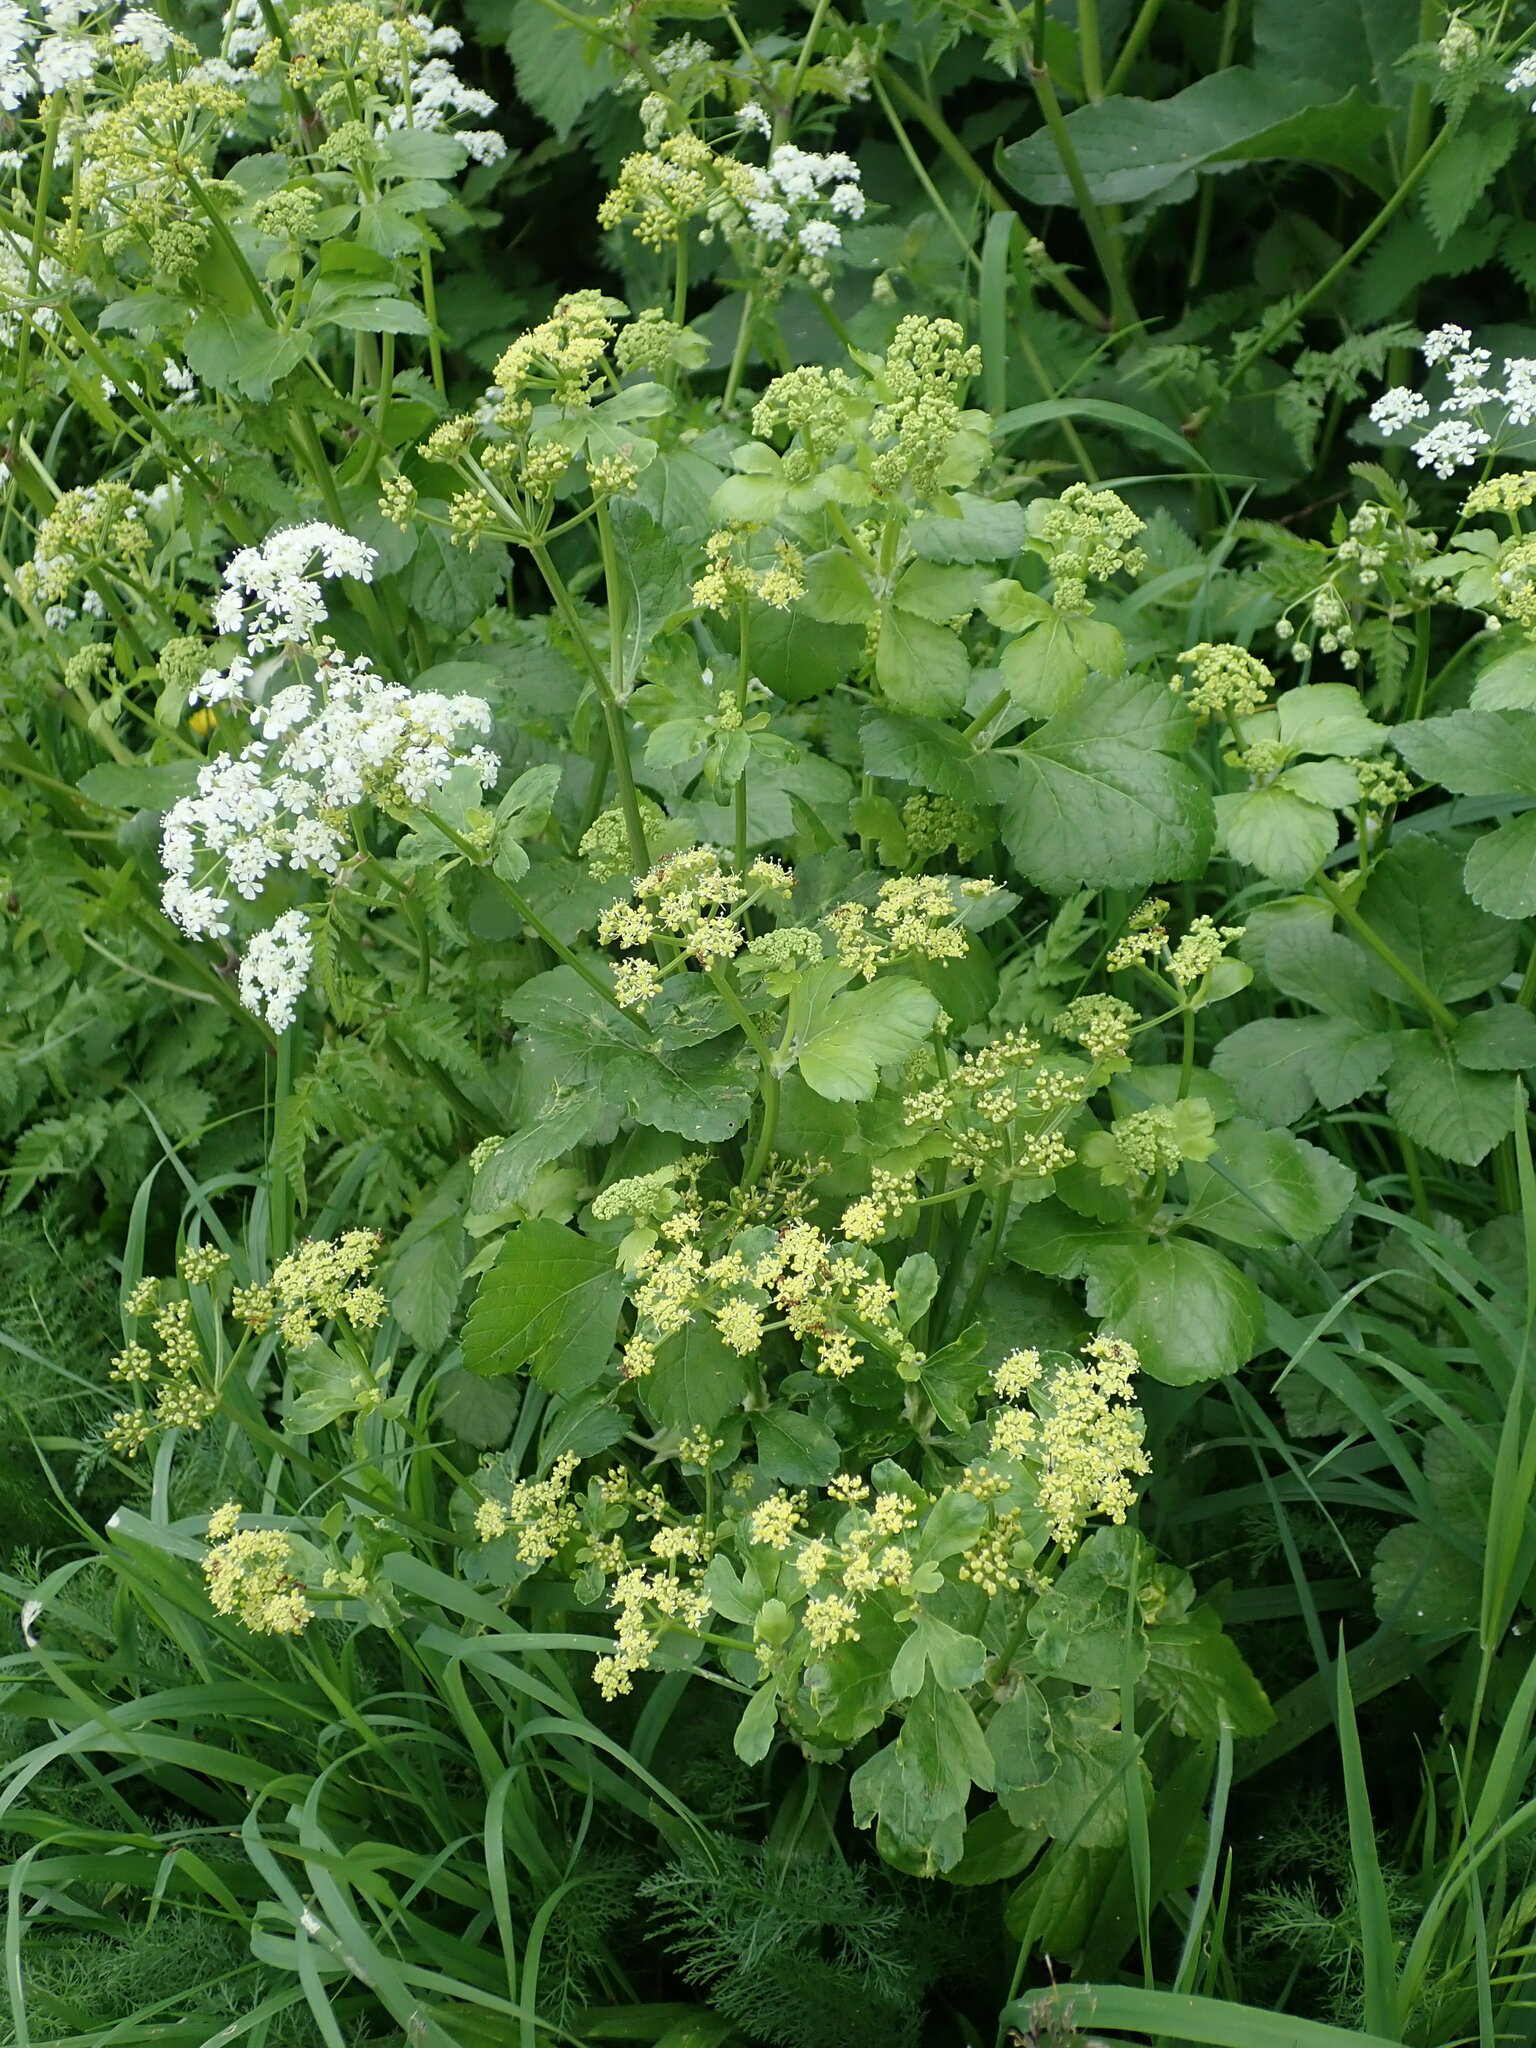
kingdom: Plantae
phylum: Tracheophyta
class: Magnoliopsida
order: Apiales
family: Apiaceae
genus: Smyrnium
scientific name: Smyrnium olusatrum
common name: Alexanders
